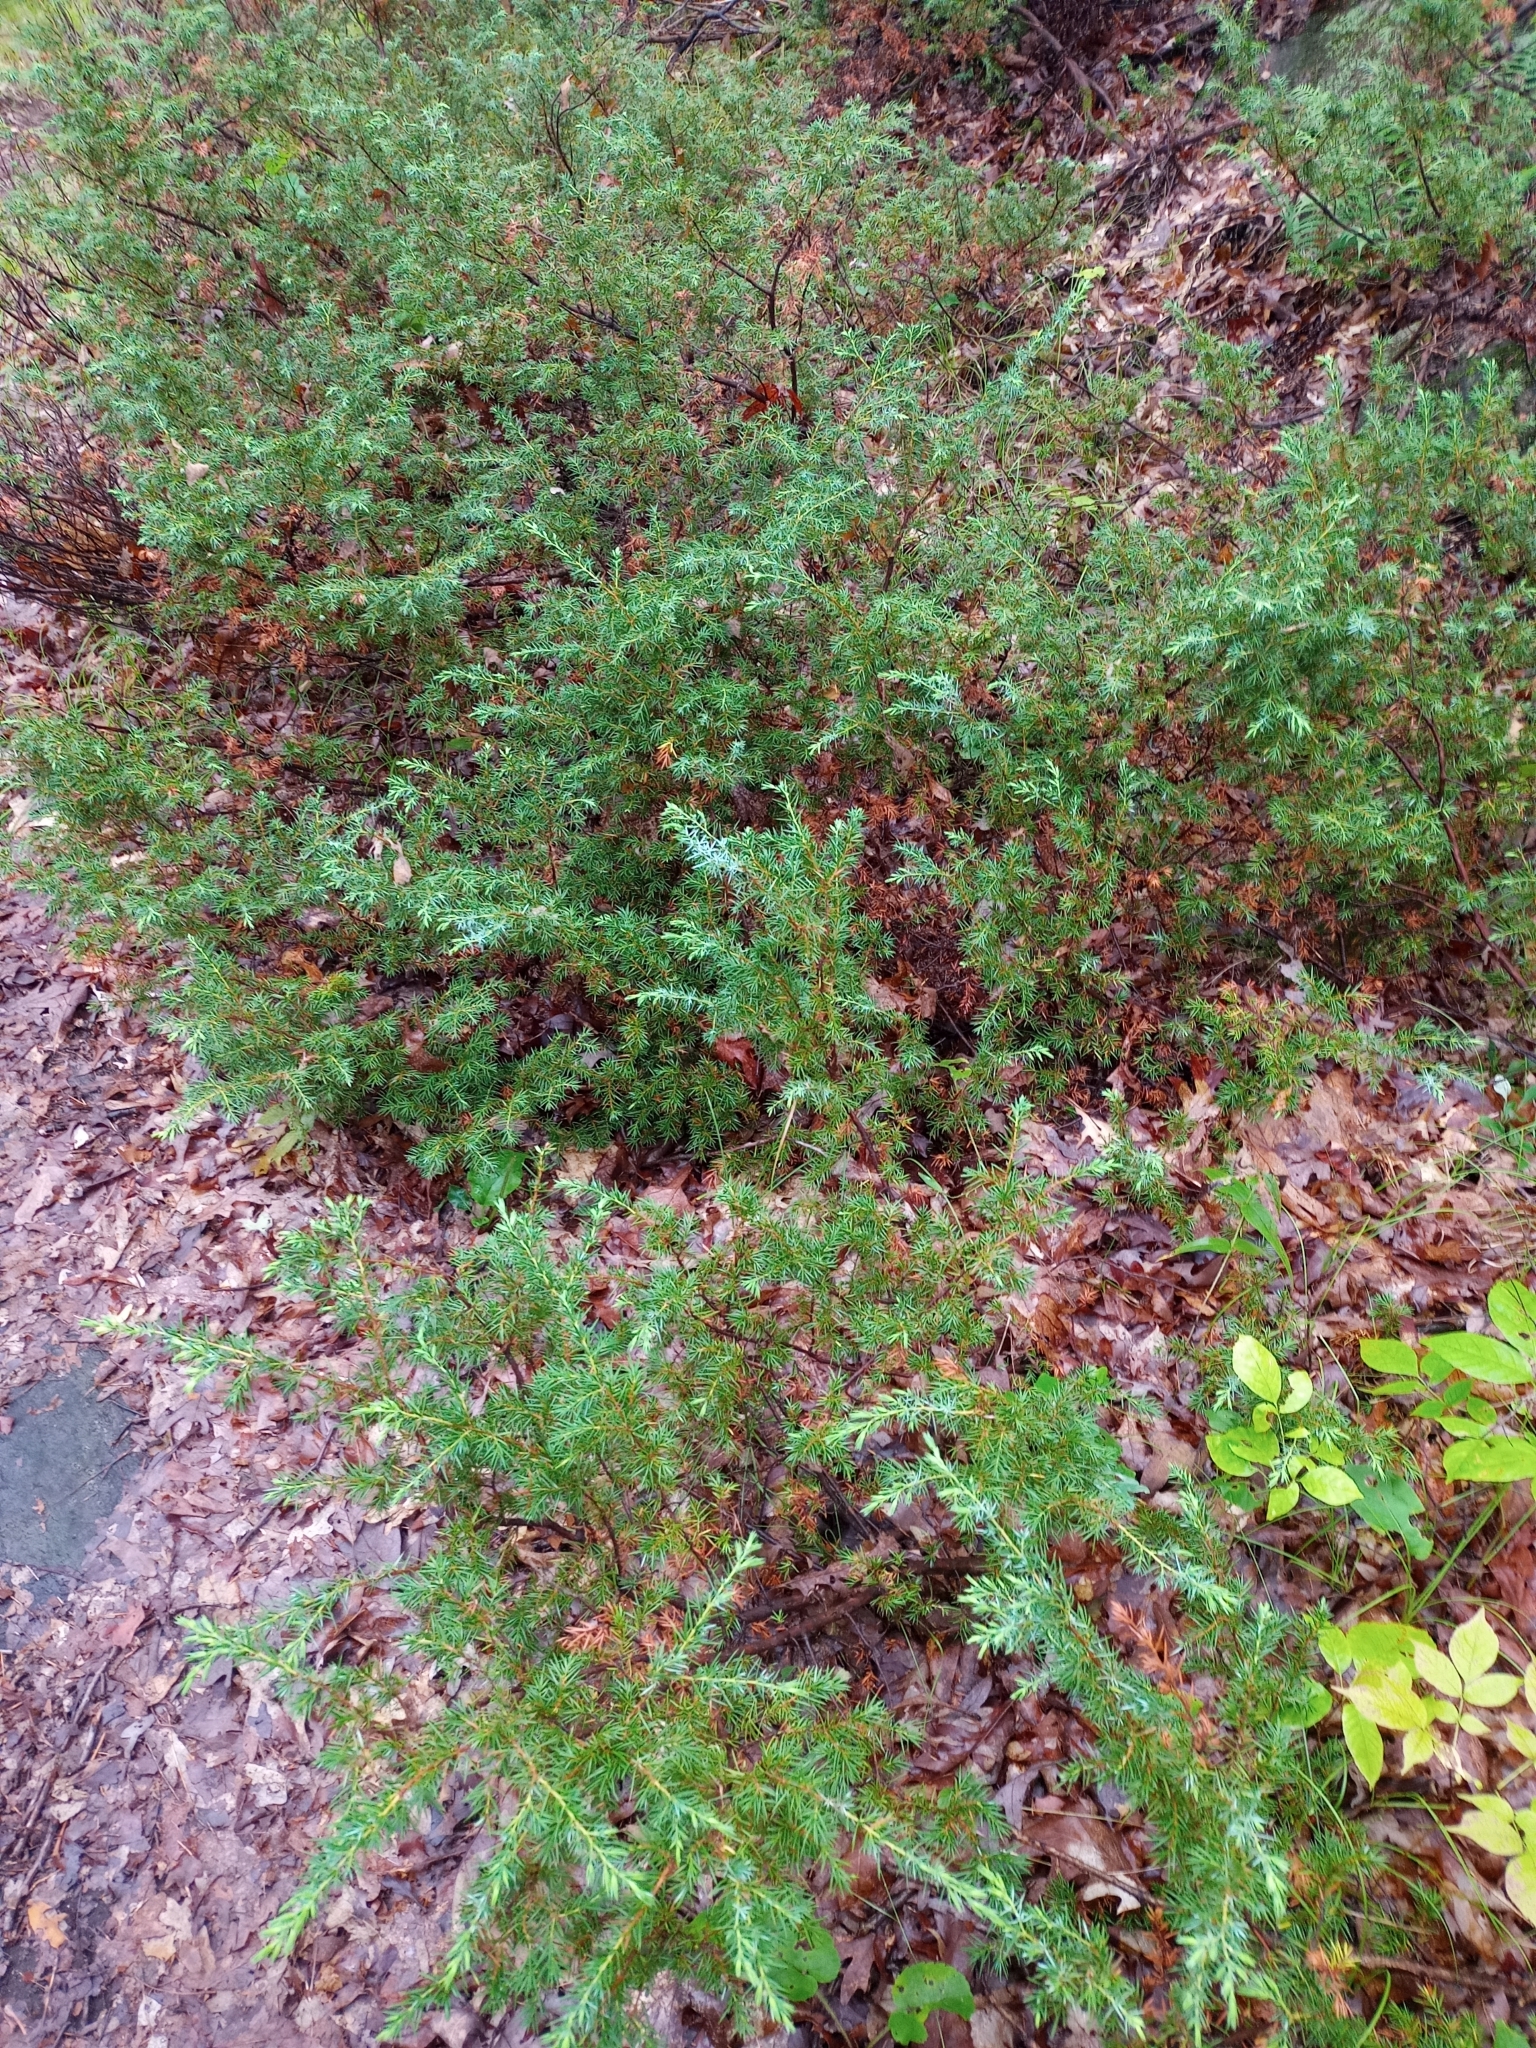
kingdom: Plantae
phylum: Tracheophyta
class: Pinopsida
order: Pinales
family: Cupressaceae
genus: Juniperus
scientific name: Juniperus communis
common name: Common juniper
